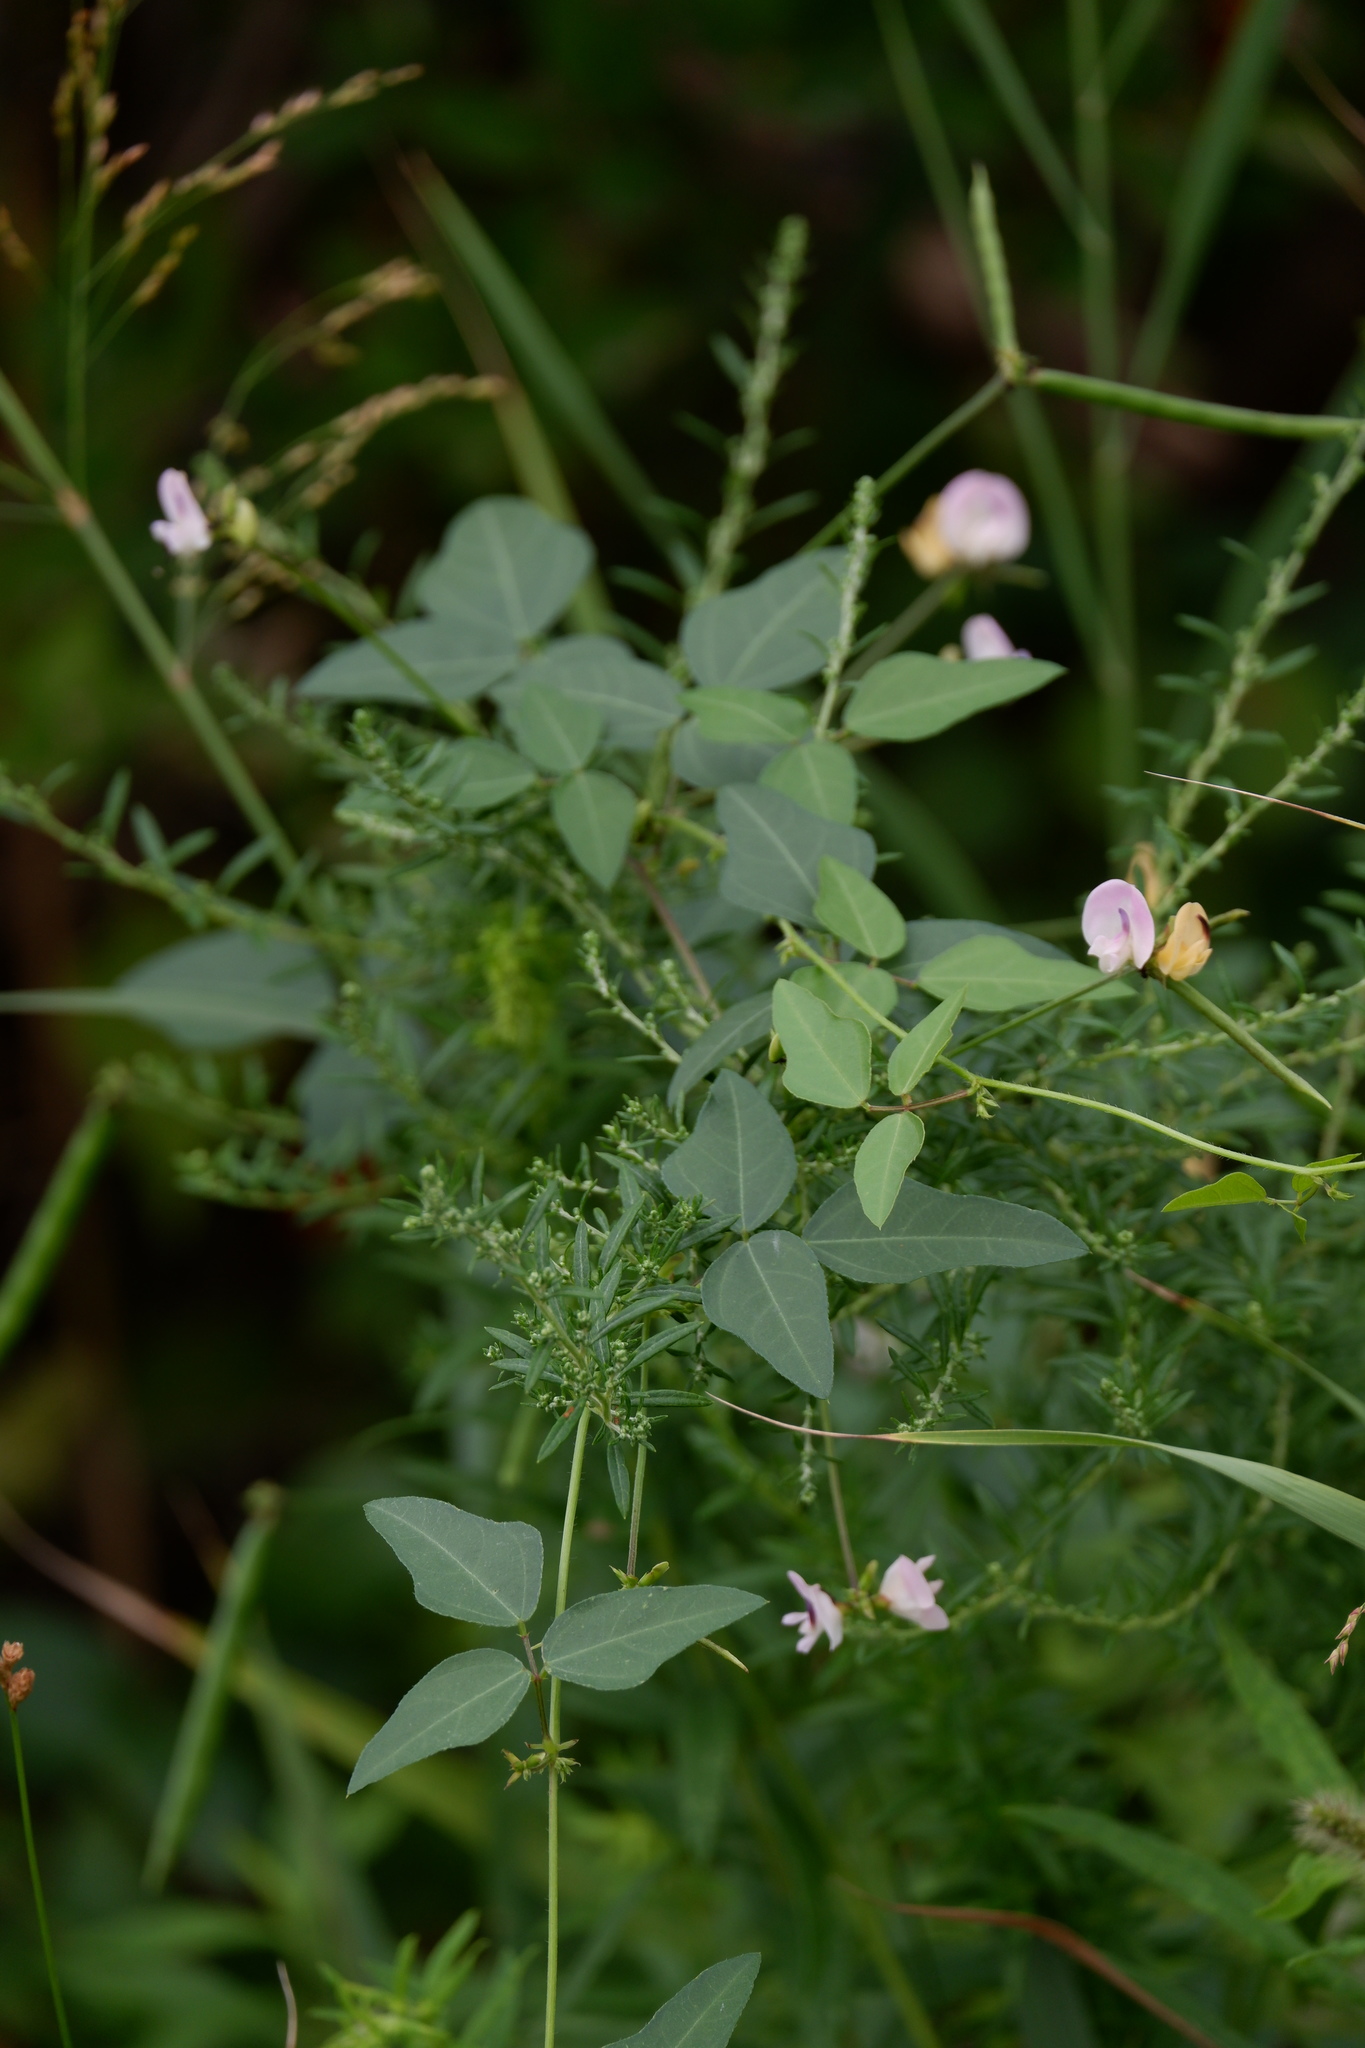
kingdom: Plantae
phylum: Tracheophyta
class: Magnoliopsida
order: Fabales
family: Fabaceae
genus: Strophostyles
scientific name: Strophostyles helvola
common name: Trailing wild bean
